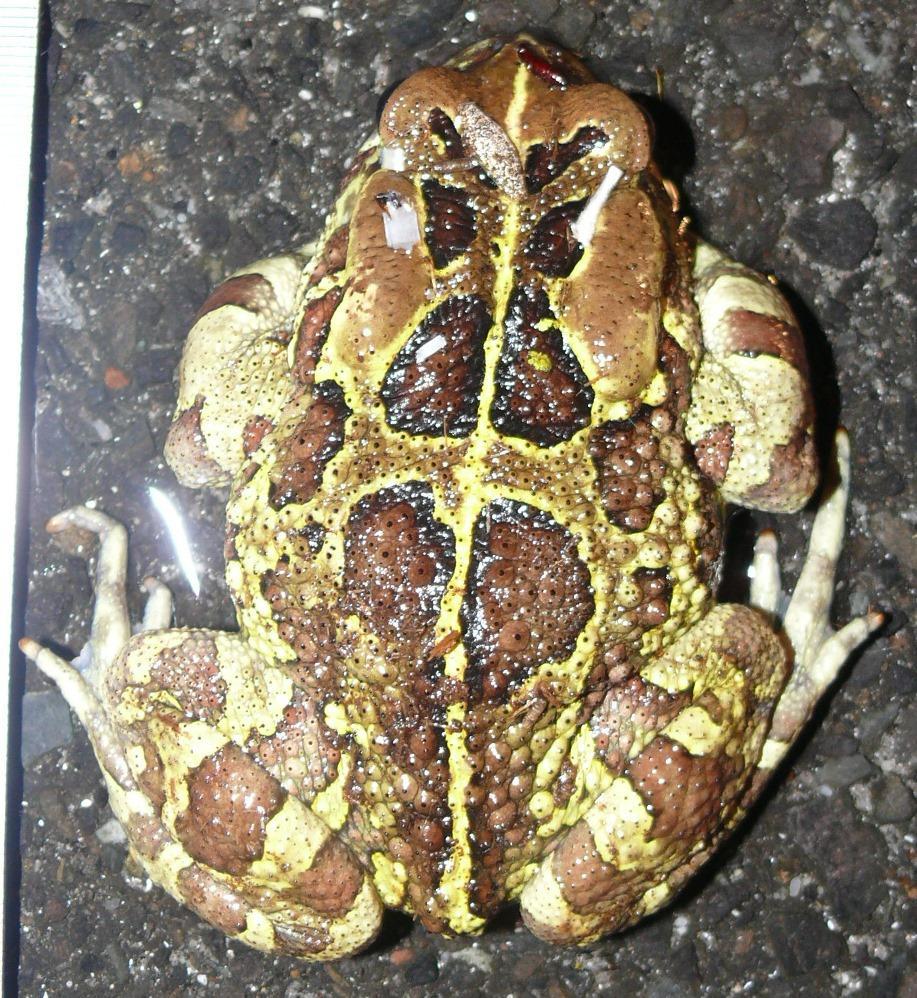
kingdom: Animalia
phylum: Chordata
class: Amphibia
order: Anura
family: Bufonidae
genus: Sclerophrys
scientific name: Sclerophrys pantherina
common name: Panther toad
